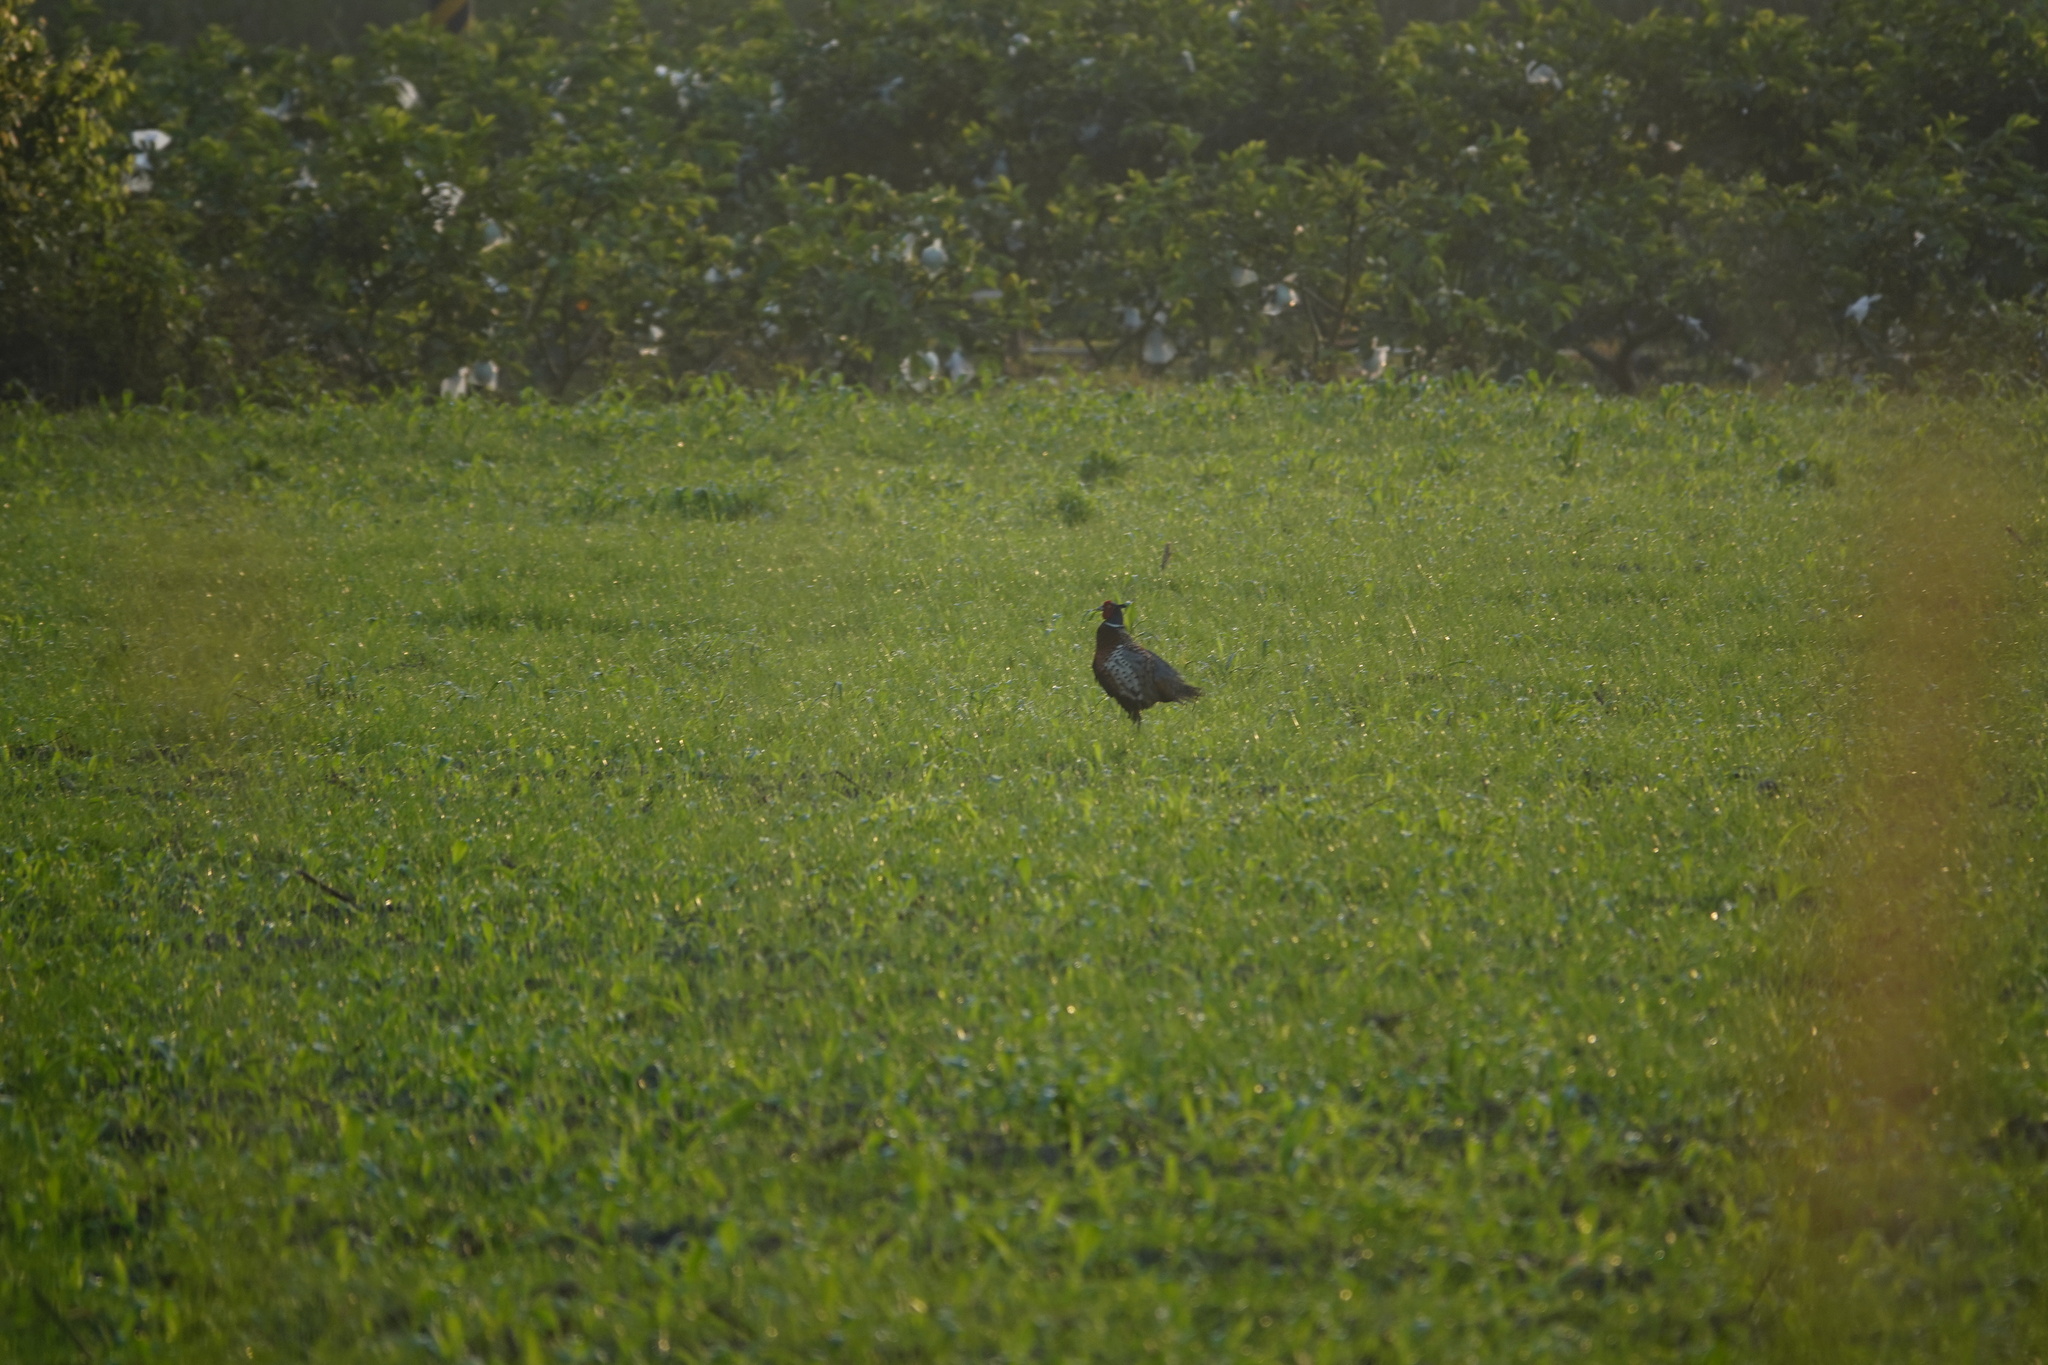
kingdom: Animalia
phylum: Chordata
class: Aves
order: Galliformes
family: Phasianidae
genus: Phasianus
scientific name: Phasianus colchicus
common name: Common pheasant
